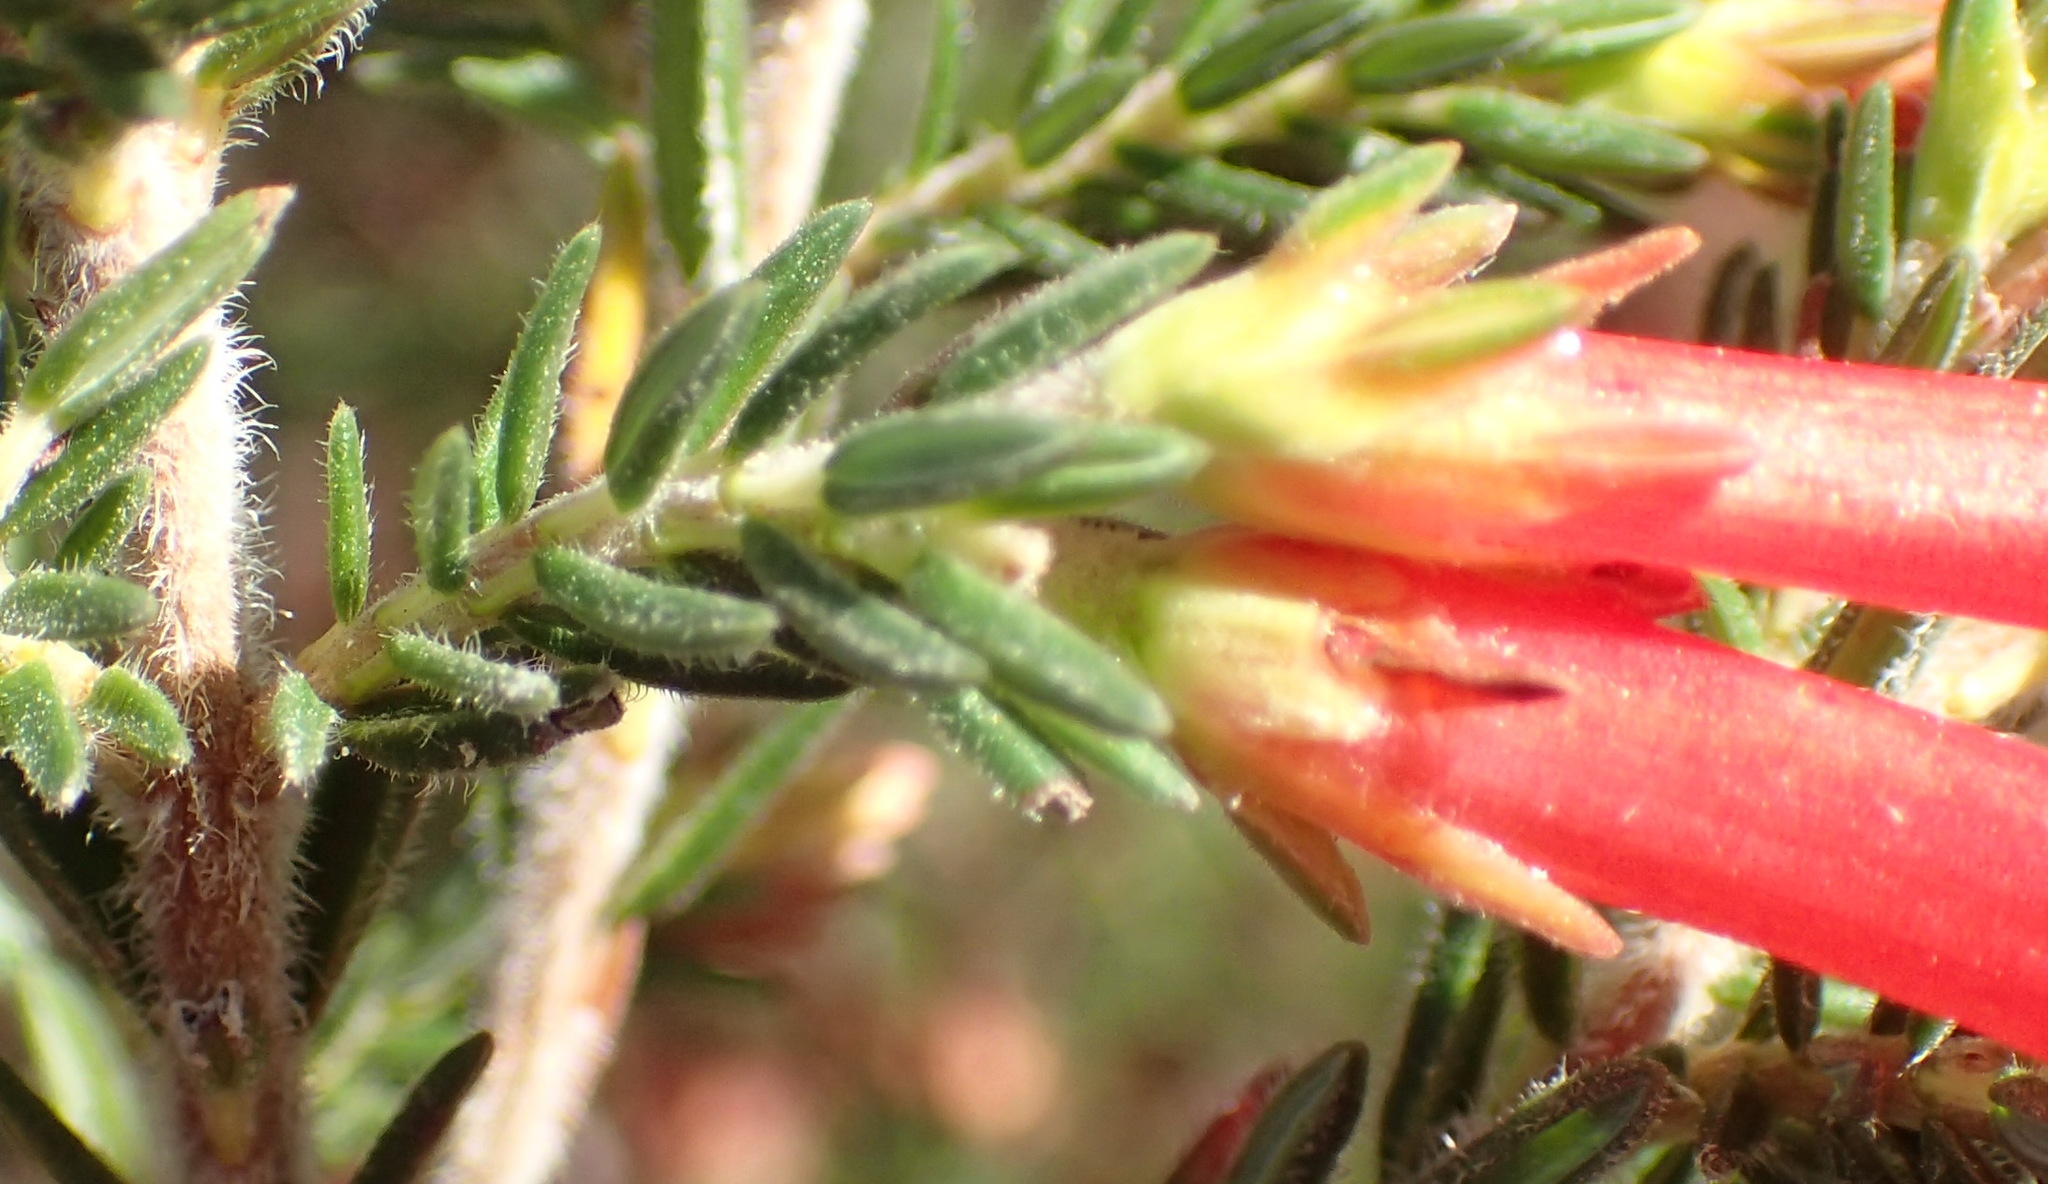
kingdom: Plantae
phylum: Tracheophyta
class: Magnoliopsida
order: Ericales
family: Ericaceae
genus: Erica
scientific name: Erica discolor
